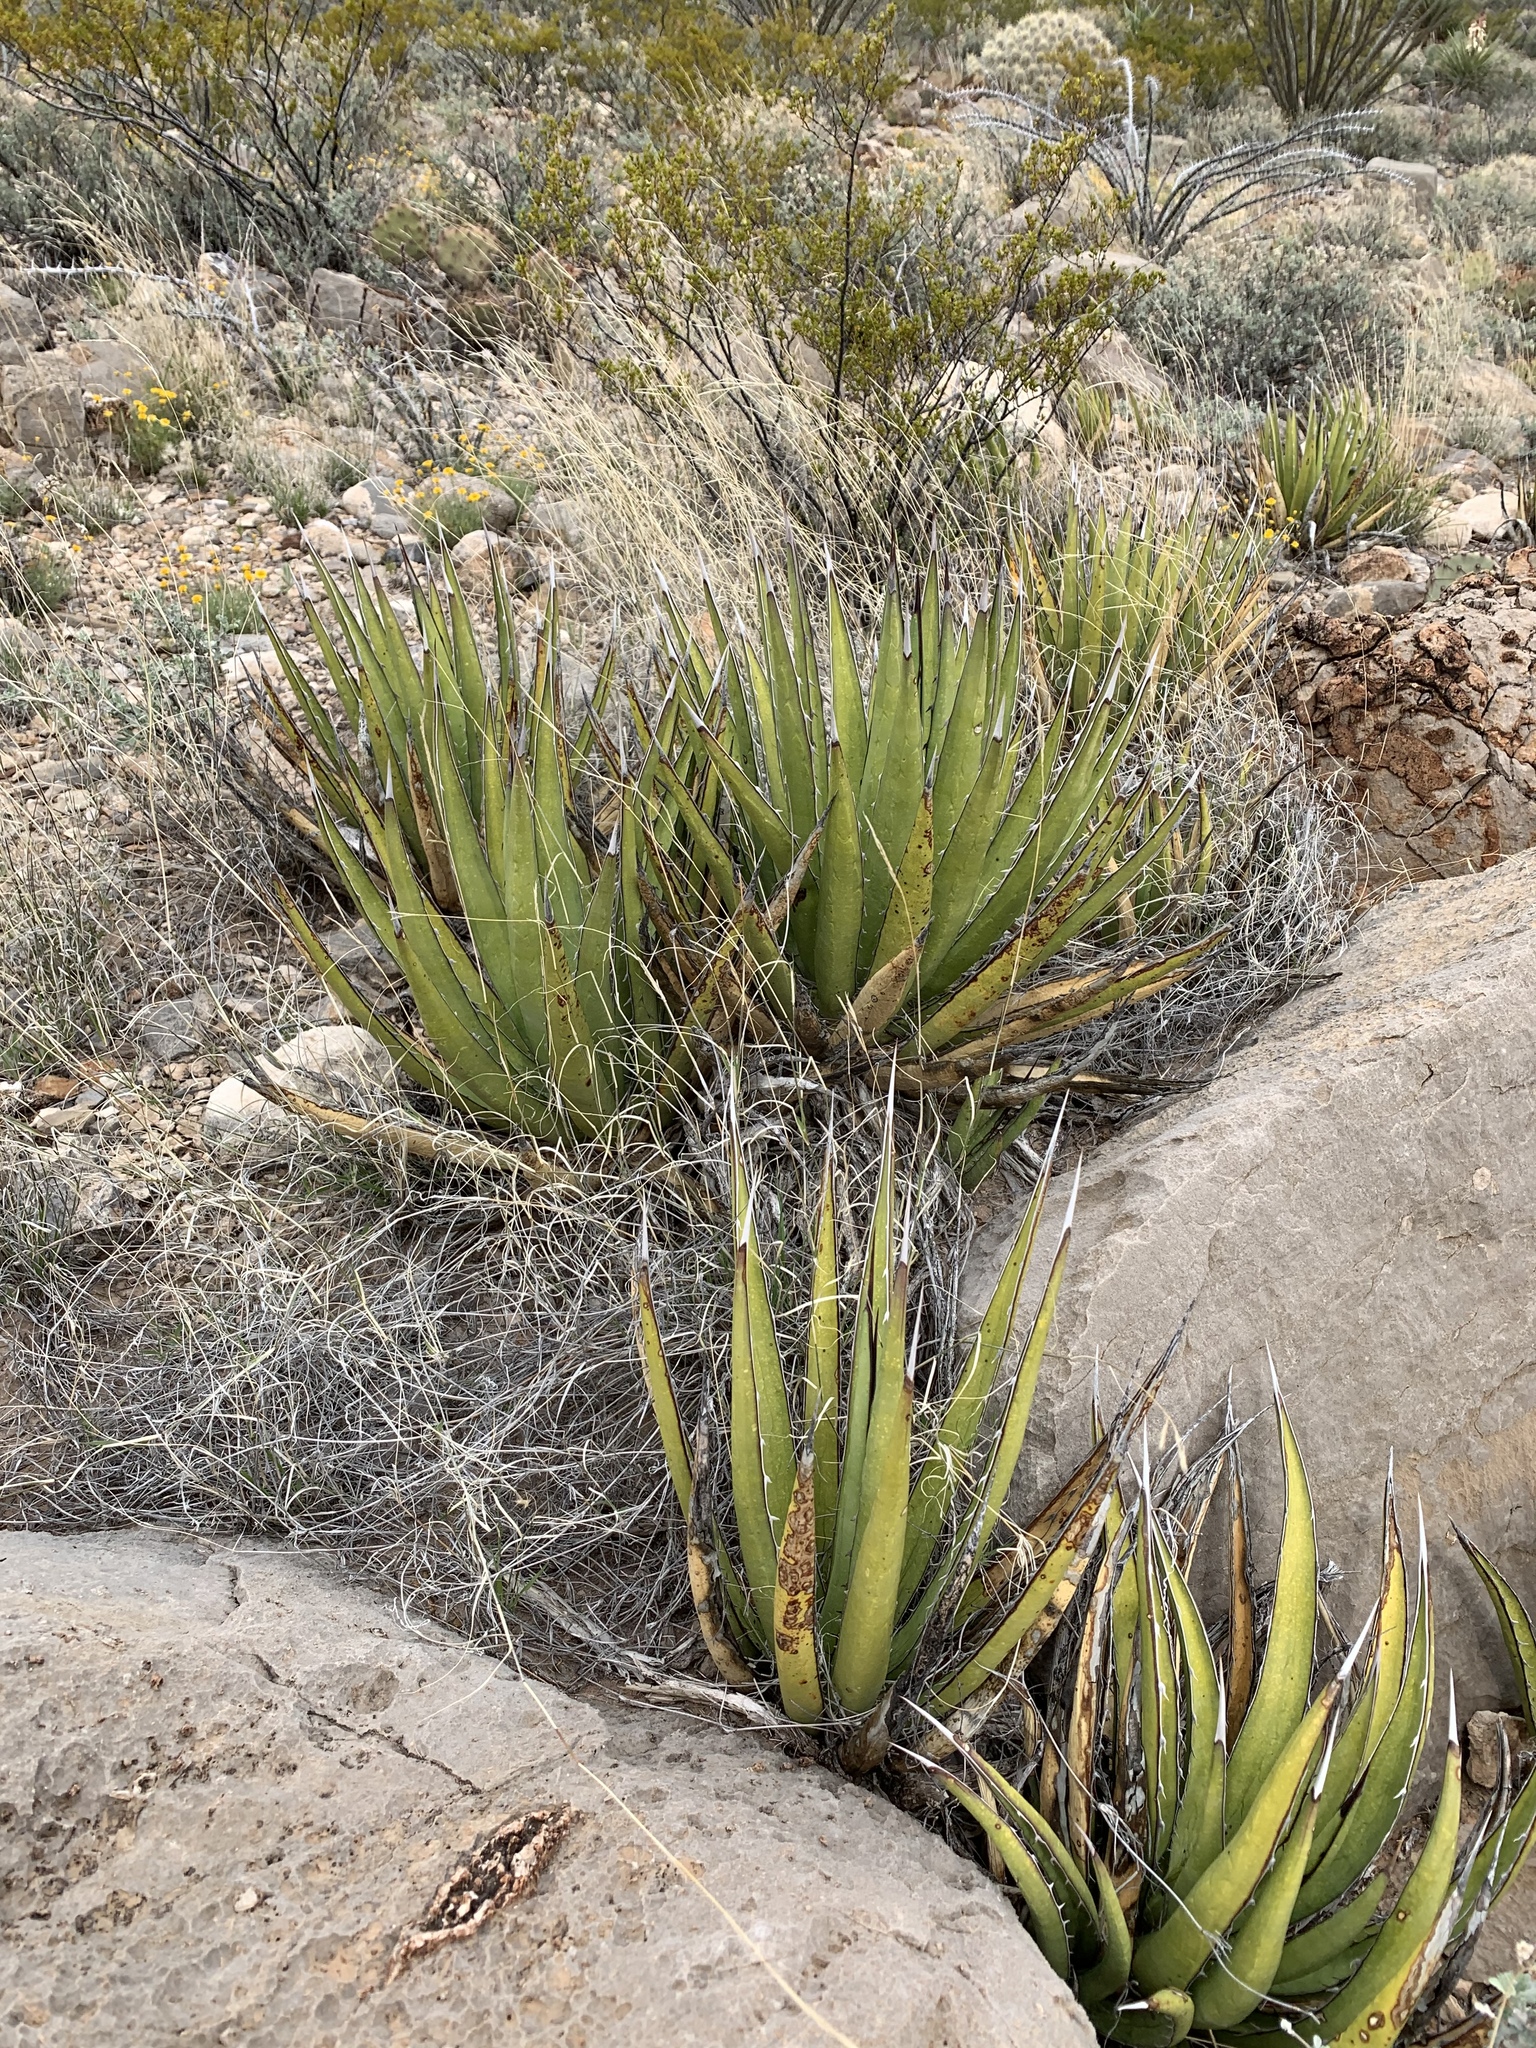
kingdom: Plantae
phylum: Tracheophyta
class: Liliopsida
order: Asparagales
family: Asparagaceae
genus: Agave
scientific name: Agave lechuguilla
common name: Lecheguilla agave
